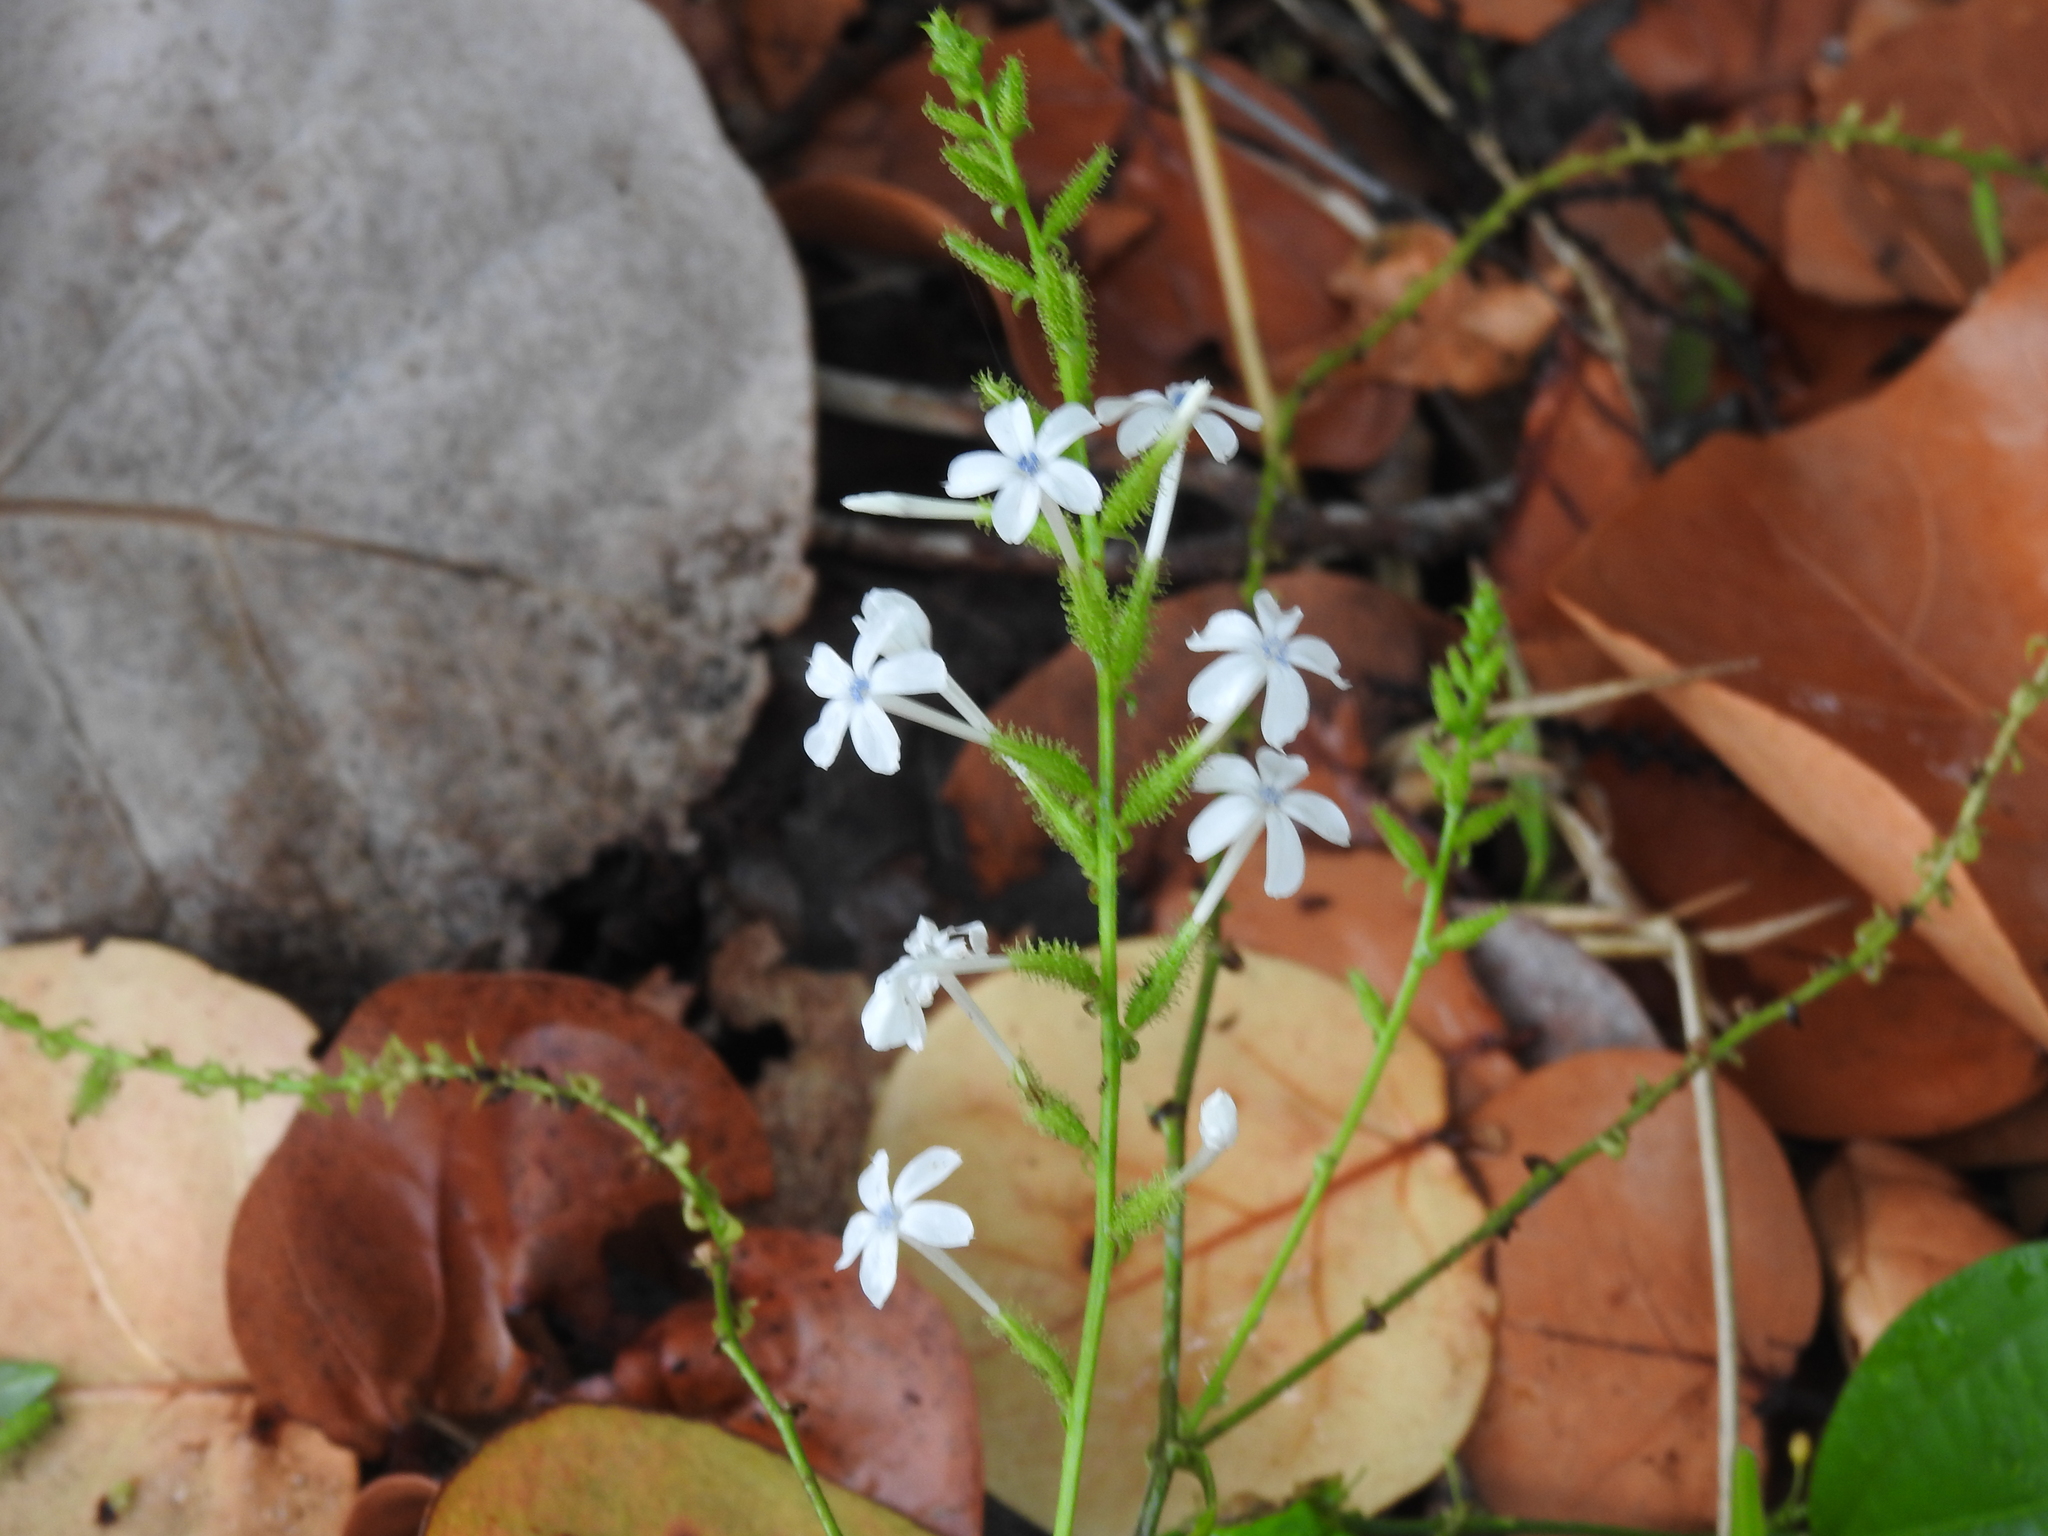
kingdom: Plantae
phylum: Tracheophyta
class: Magnoliopsida
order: Caryophyllales
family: Plumbaginaceae
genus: Plumbago
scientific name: Plumbago zeylanica
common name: Doctorbush
